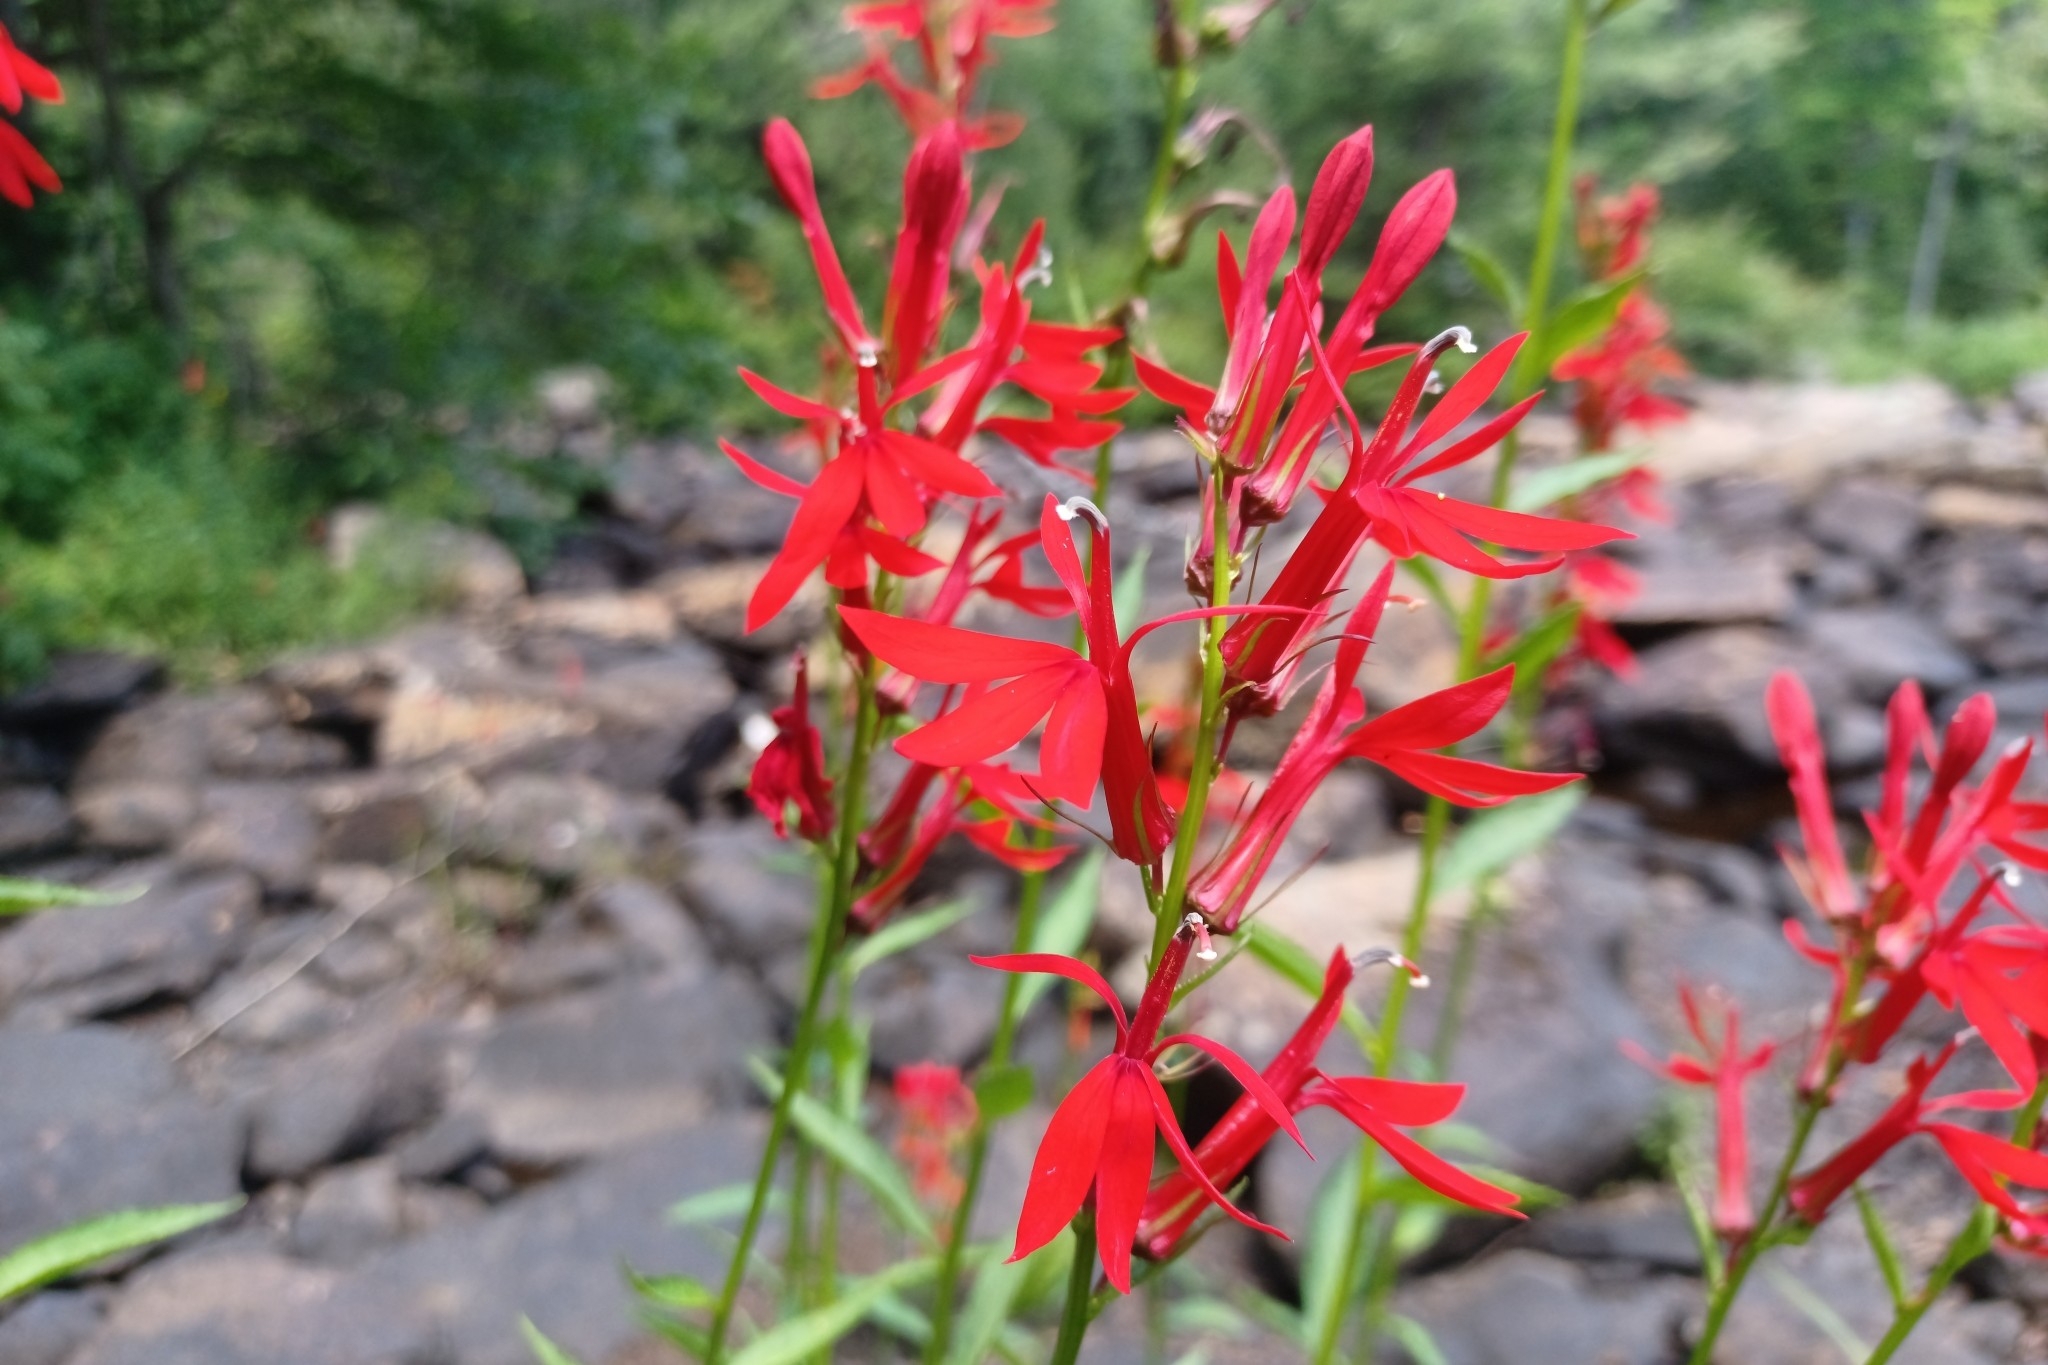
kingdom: Plantae
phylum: Tracheophyta
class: Magnoliopsida
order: Asterales
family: Campanulaceae
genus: Lobelia
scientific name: Lobelia cardinalis
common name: Cardinal flower
